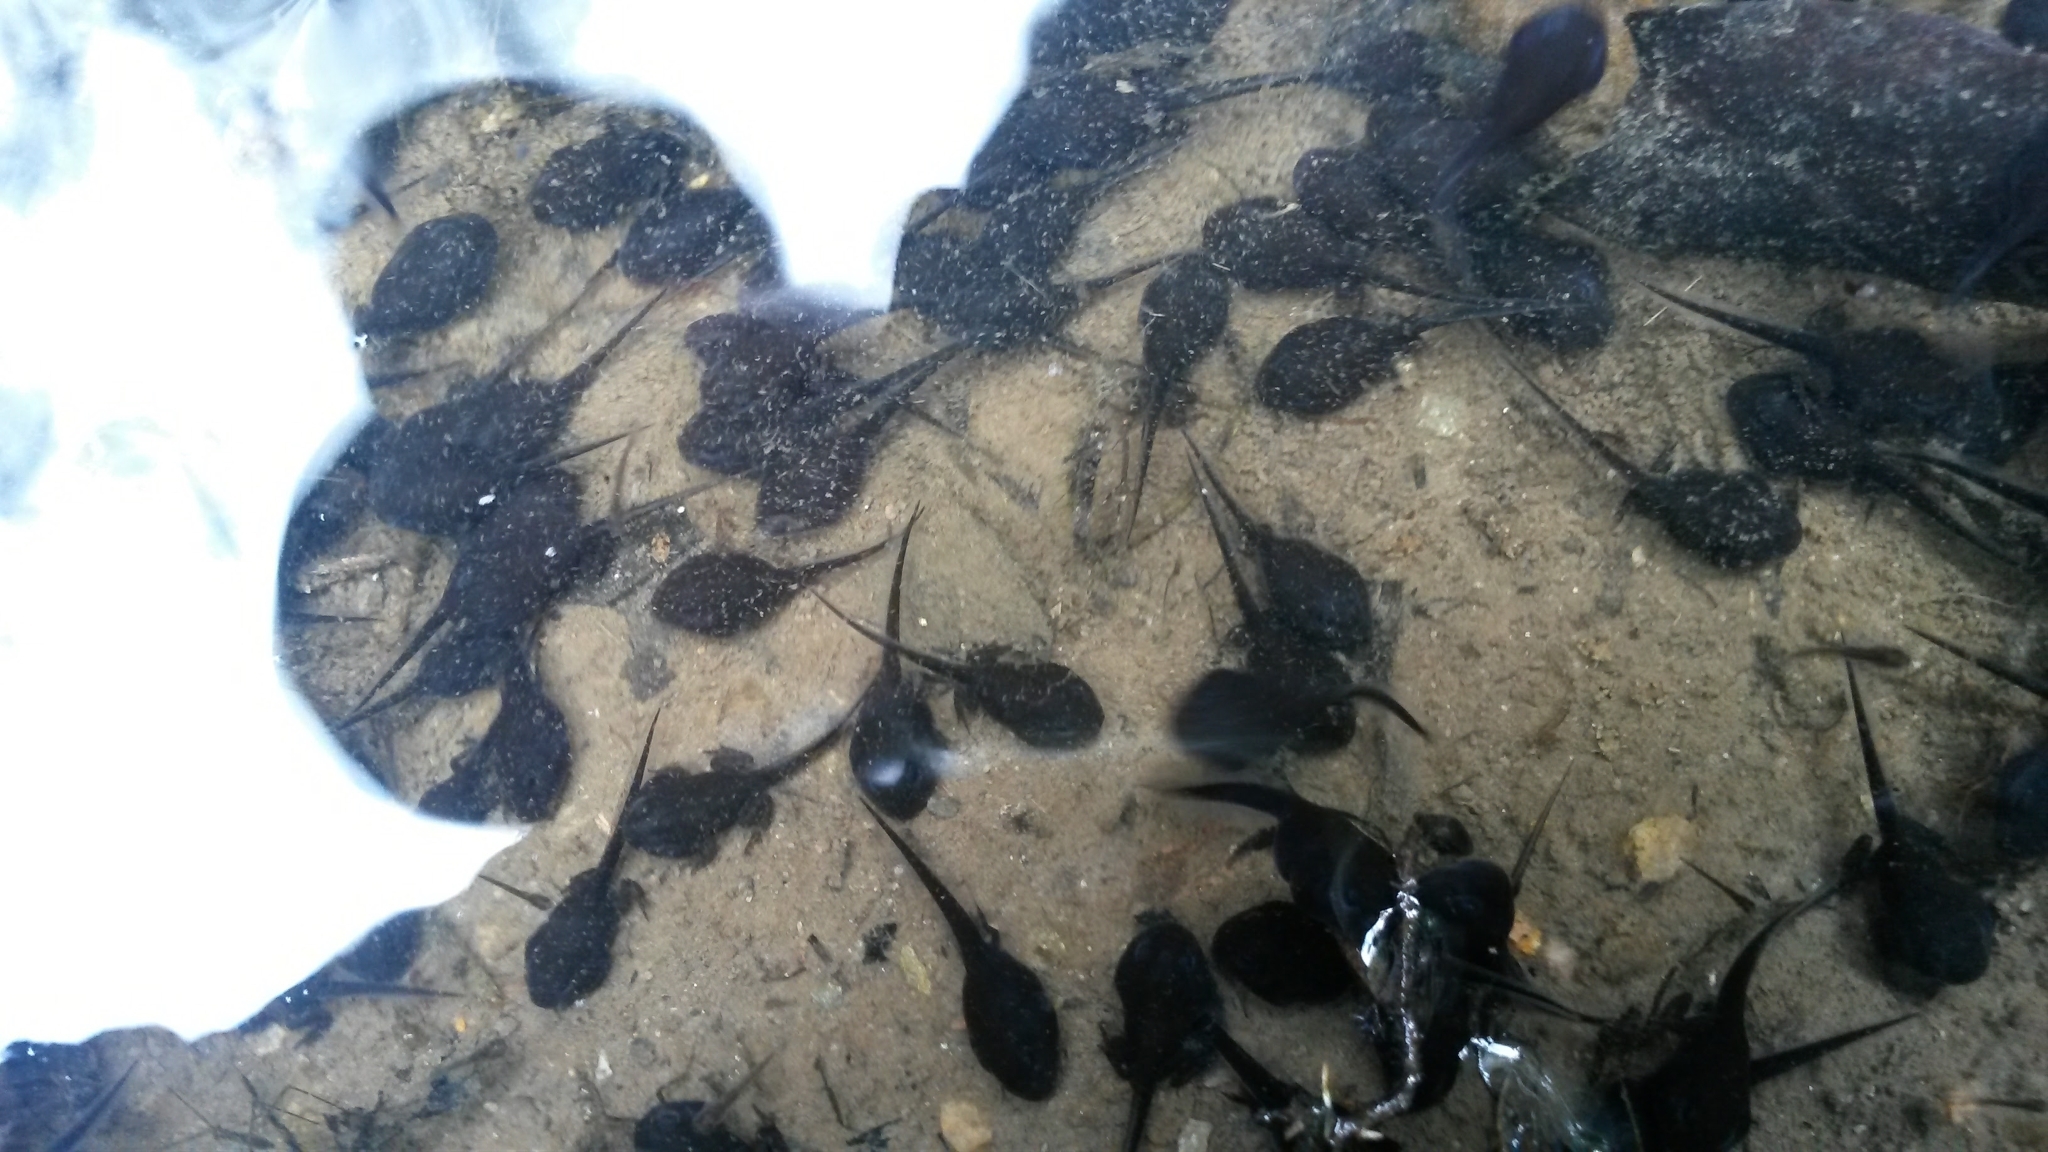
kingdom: Animalia
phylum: Chordata
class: Amphibia
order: Anura
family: Bufonidae
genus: Rhinella
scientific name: Rhinella marina
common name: Cane toad
